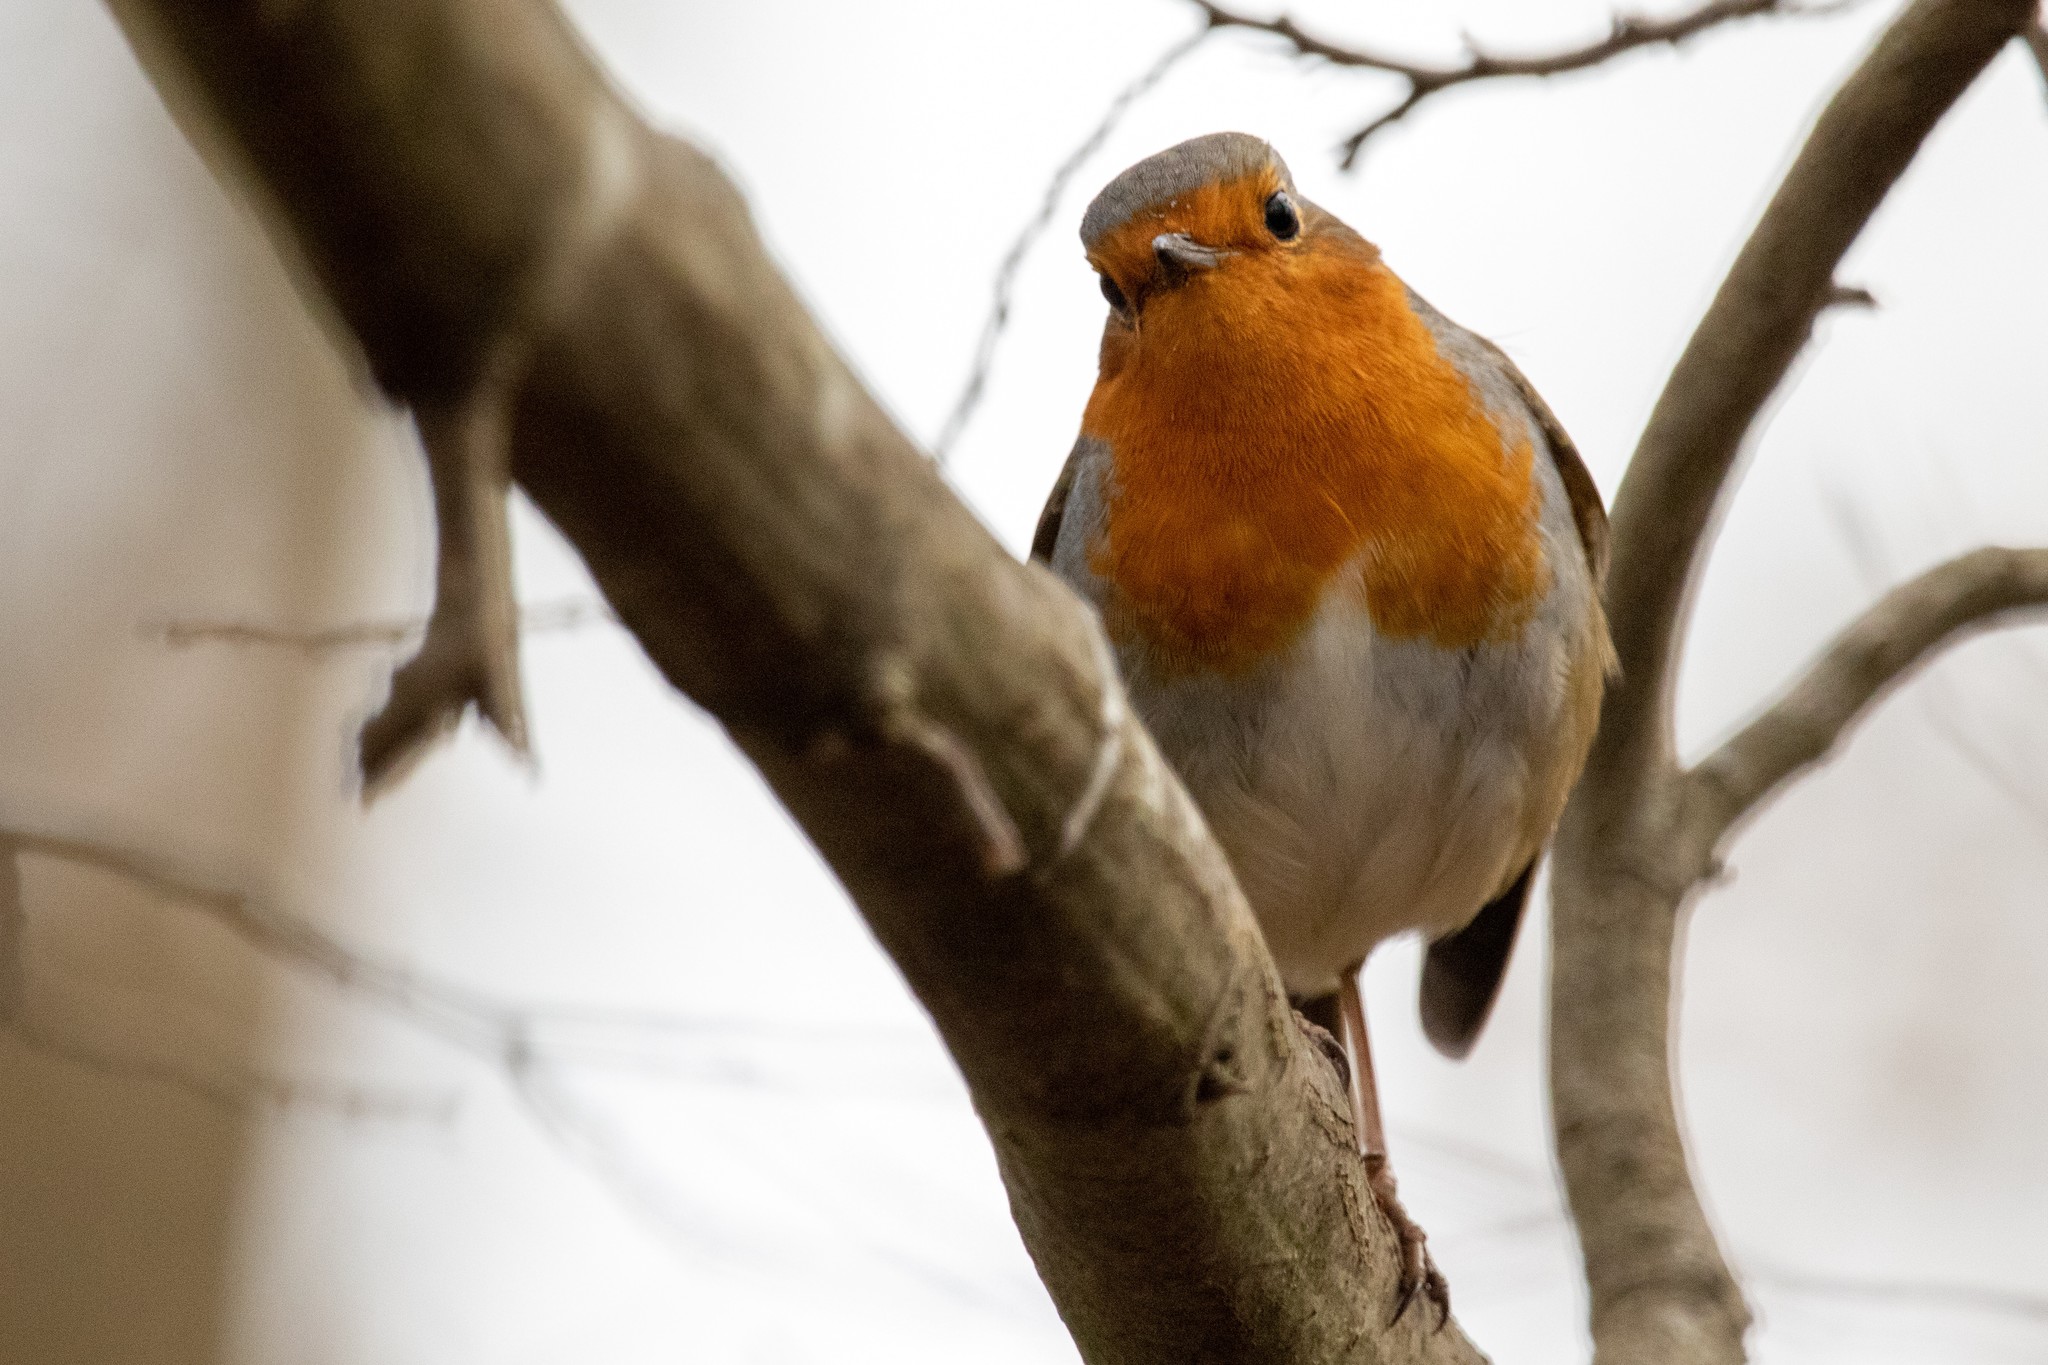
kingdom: Animalia
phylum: Chordata
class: Aves
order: Passeriformes
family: Muscicapidae
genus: Erithacus
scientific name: Erithacus rubecula
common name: European robin
